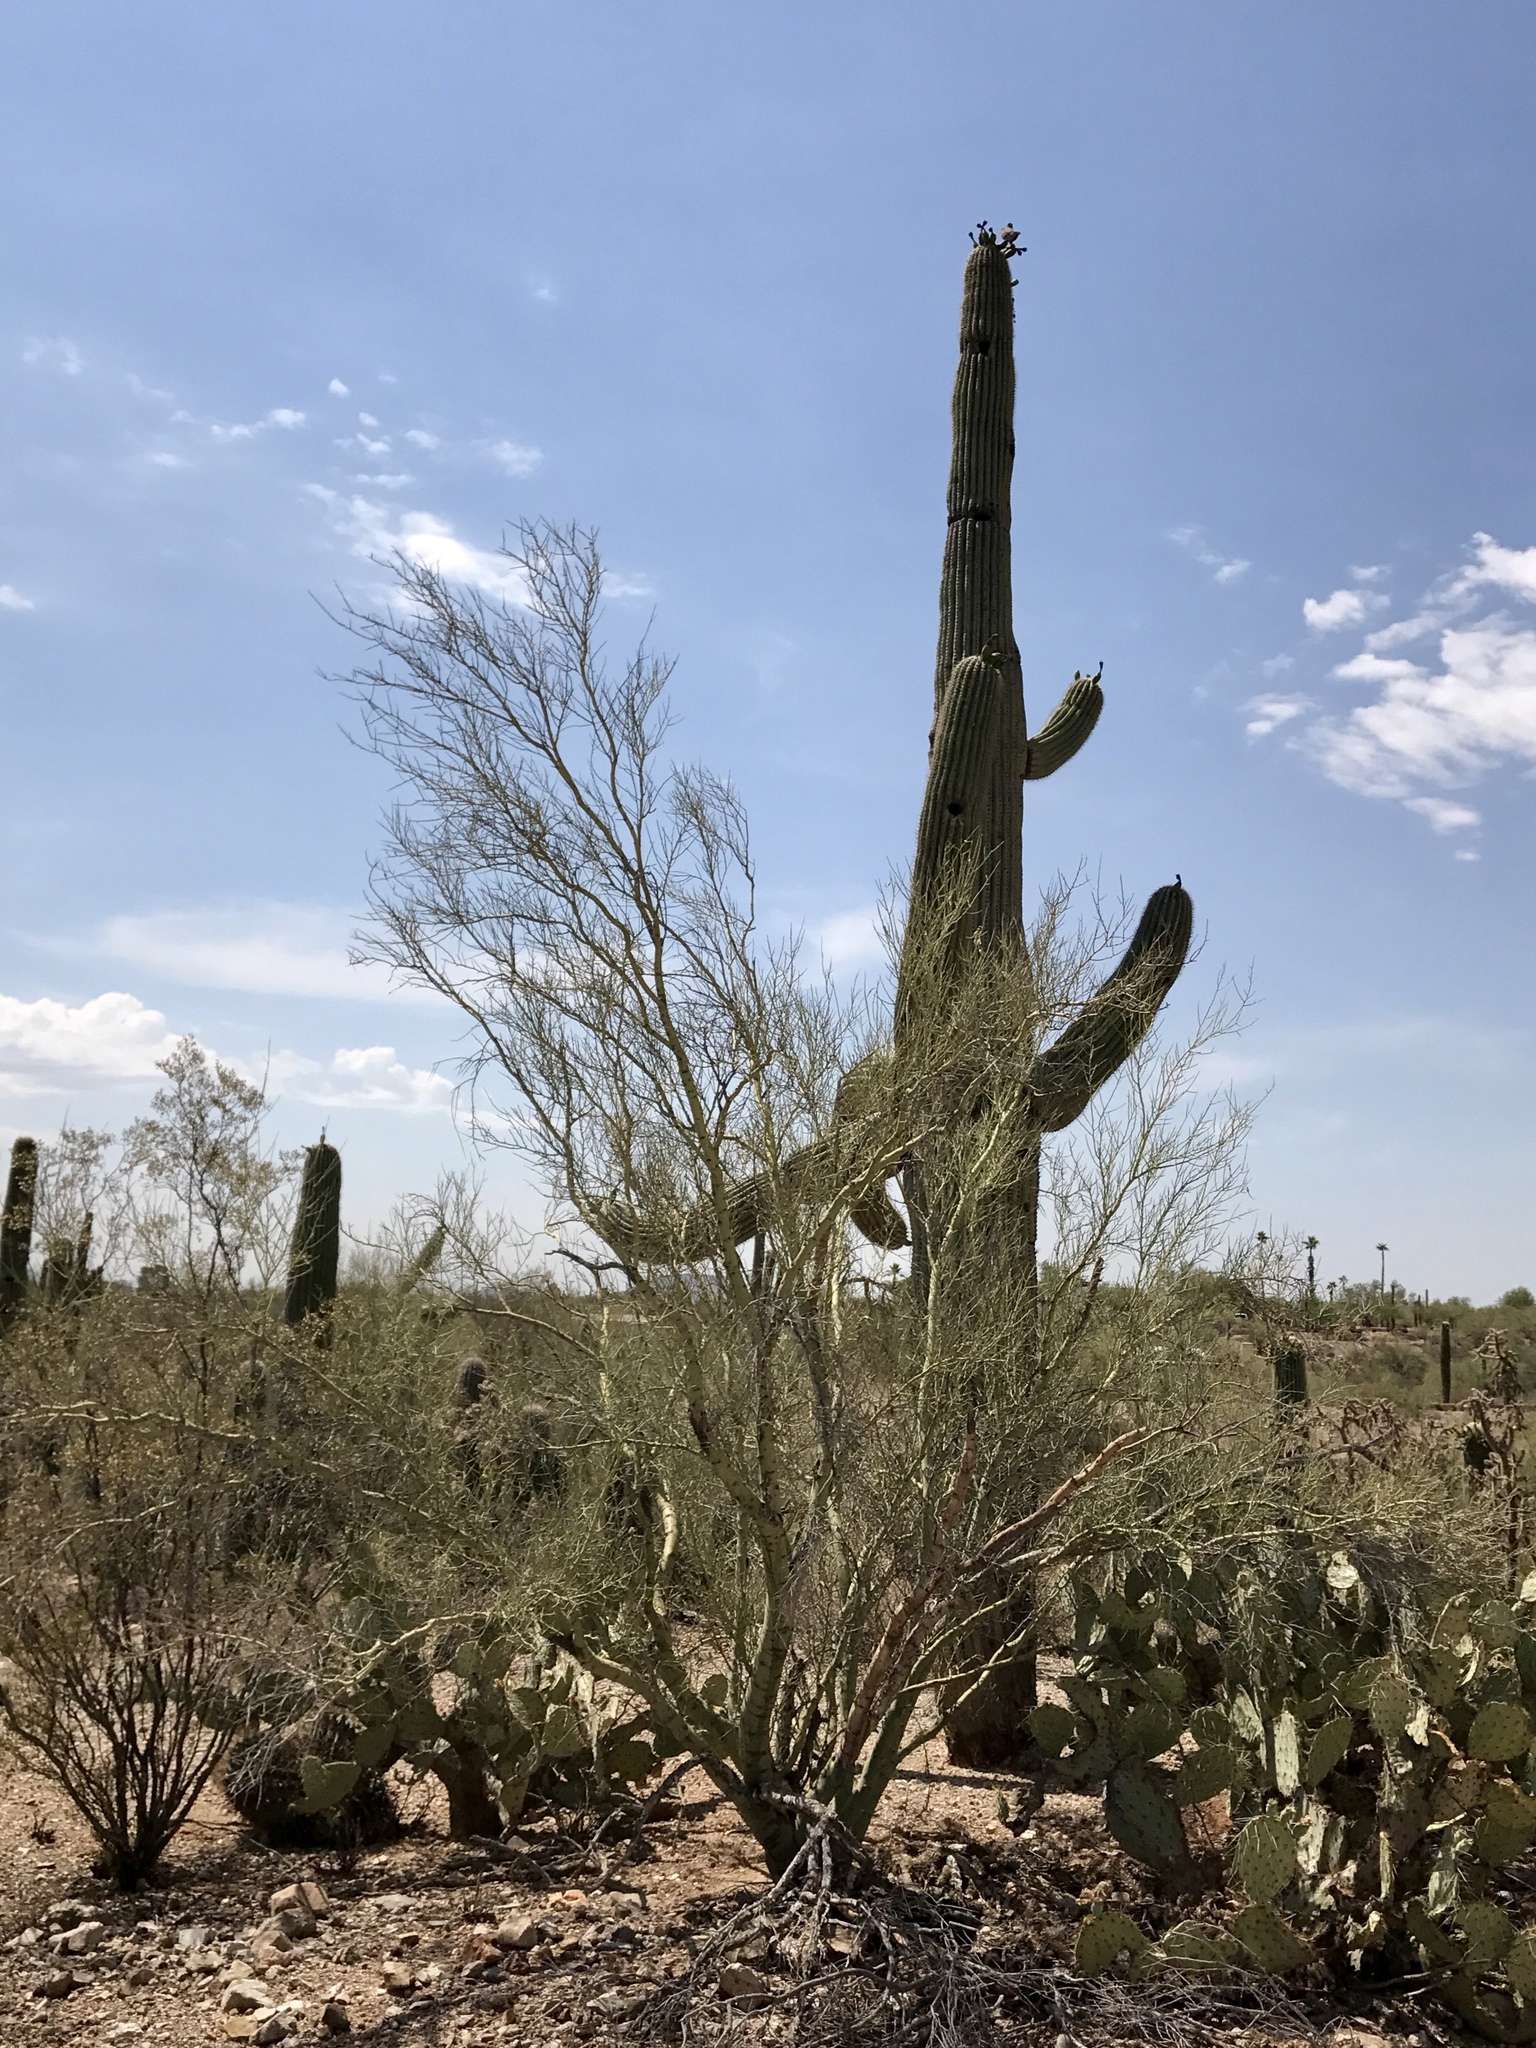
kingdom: Plantae
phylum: Tracheophyta
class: Magnoliopsida
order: Fabales
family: Fabaceae
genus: Parkinsonia
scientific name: Parkinsonia microphylla
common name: Yellow paloverde
